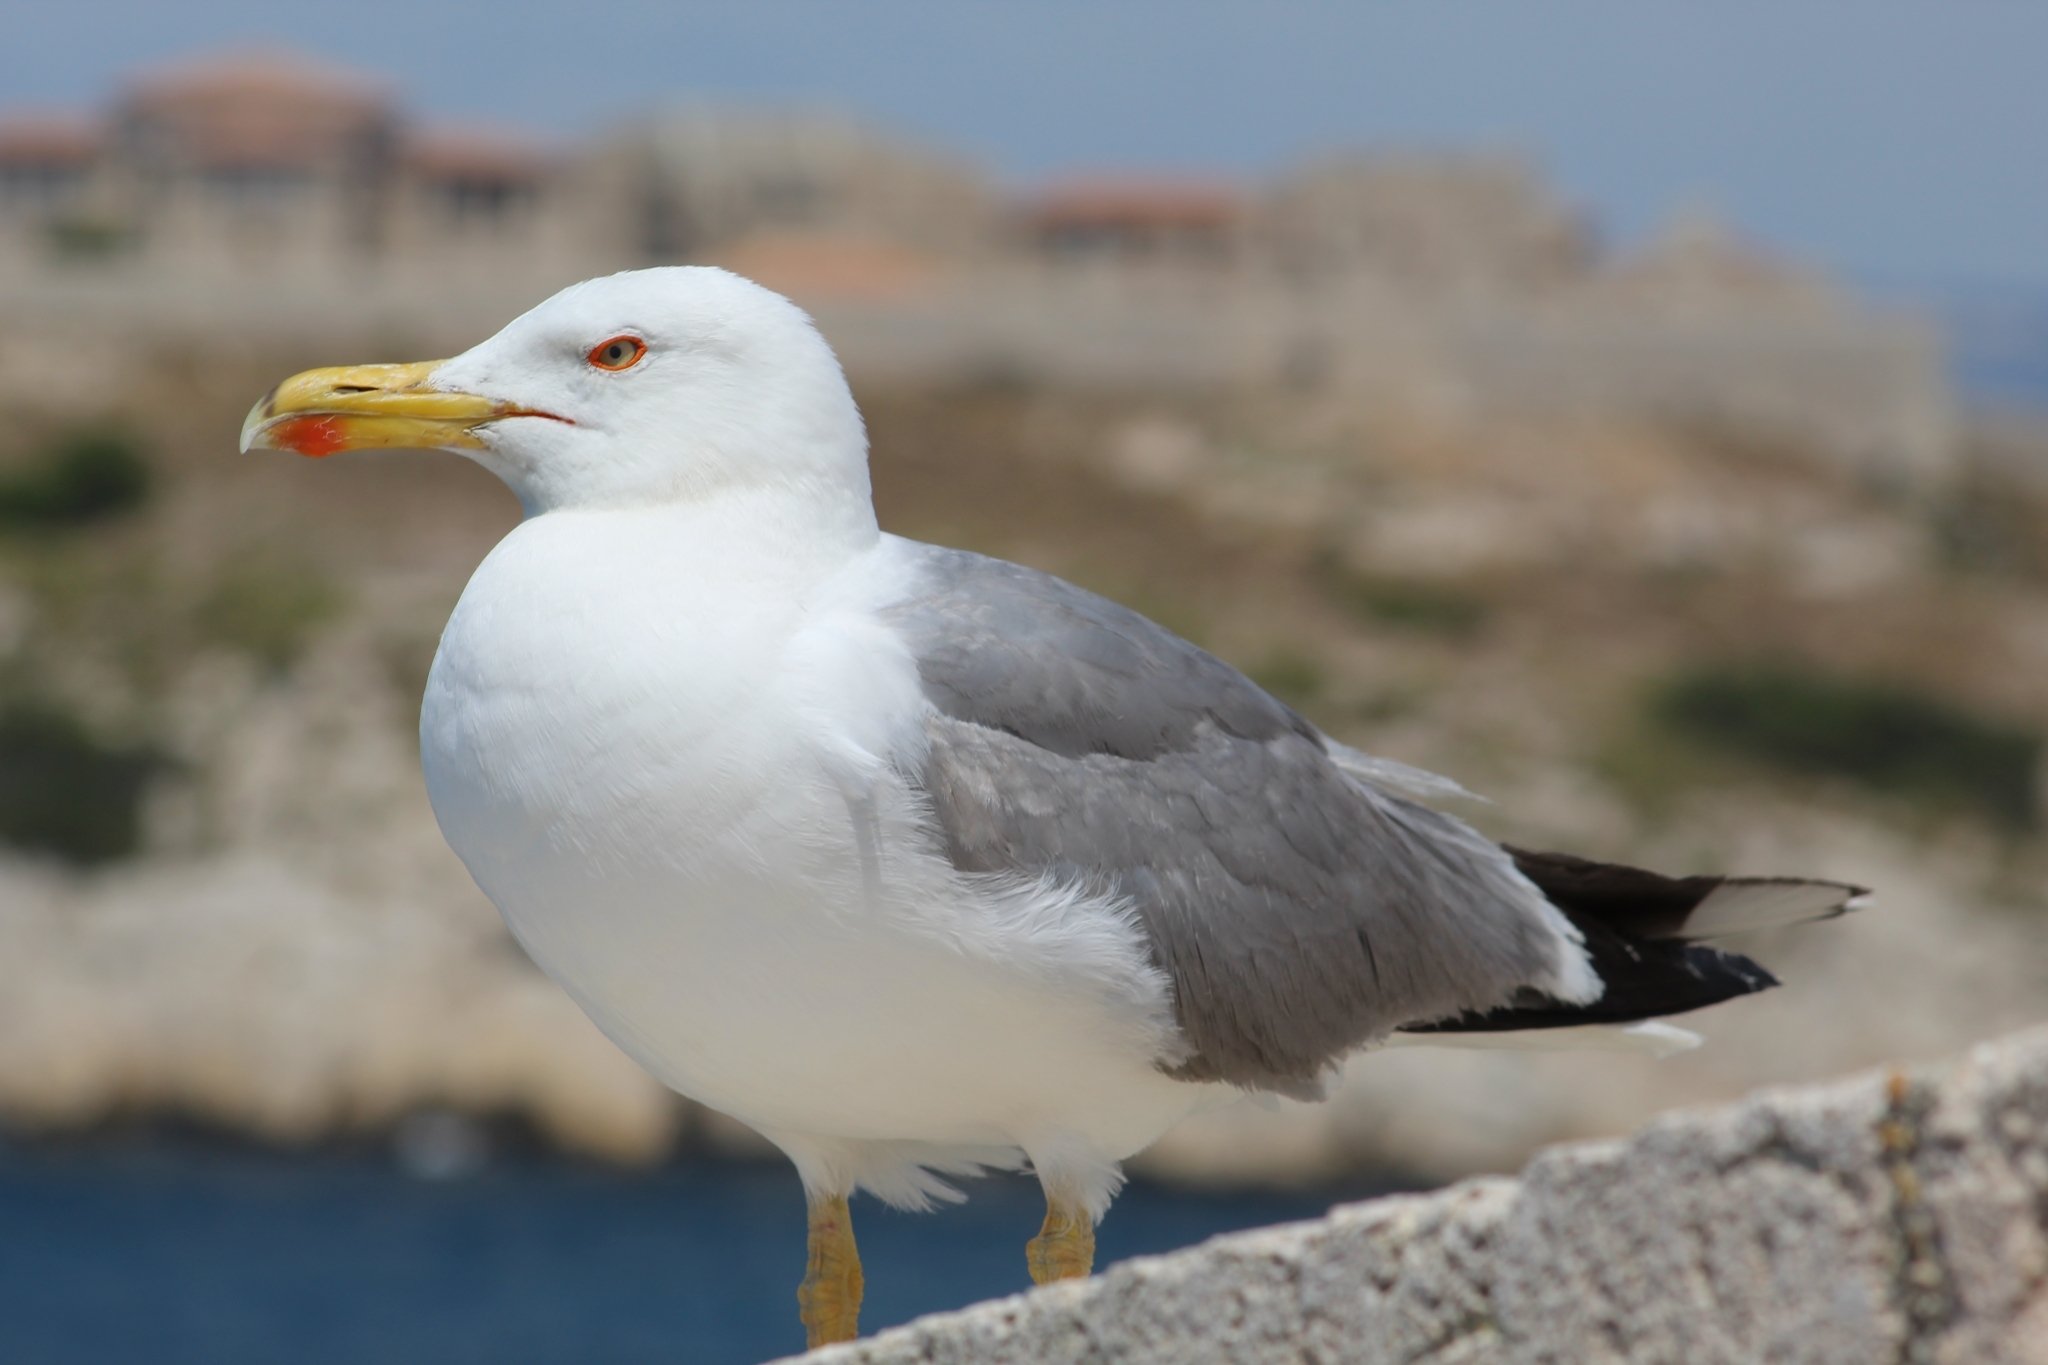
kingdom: Animalia
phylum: Chordata
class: Aves
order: Charadriiformes
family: Laridae
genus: Larus
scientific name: Larus michahellis
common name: Yellow-legged gull
